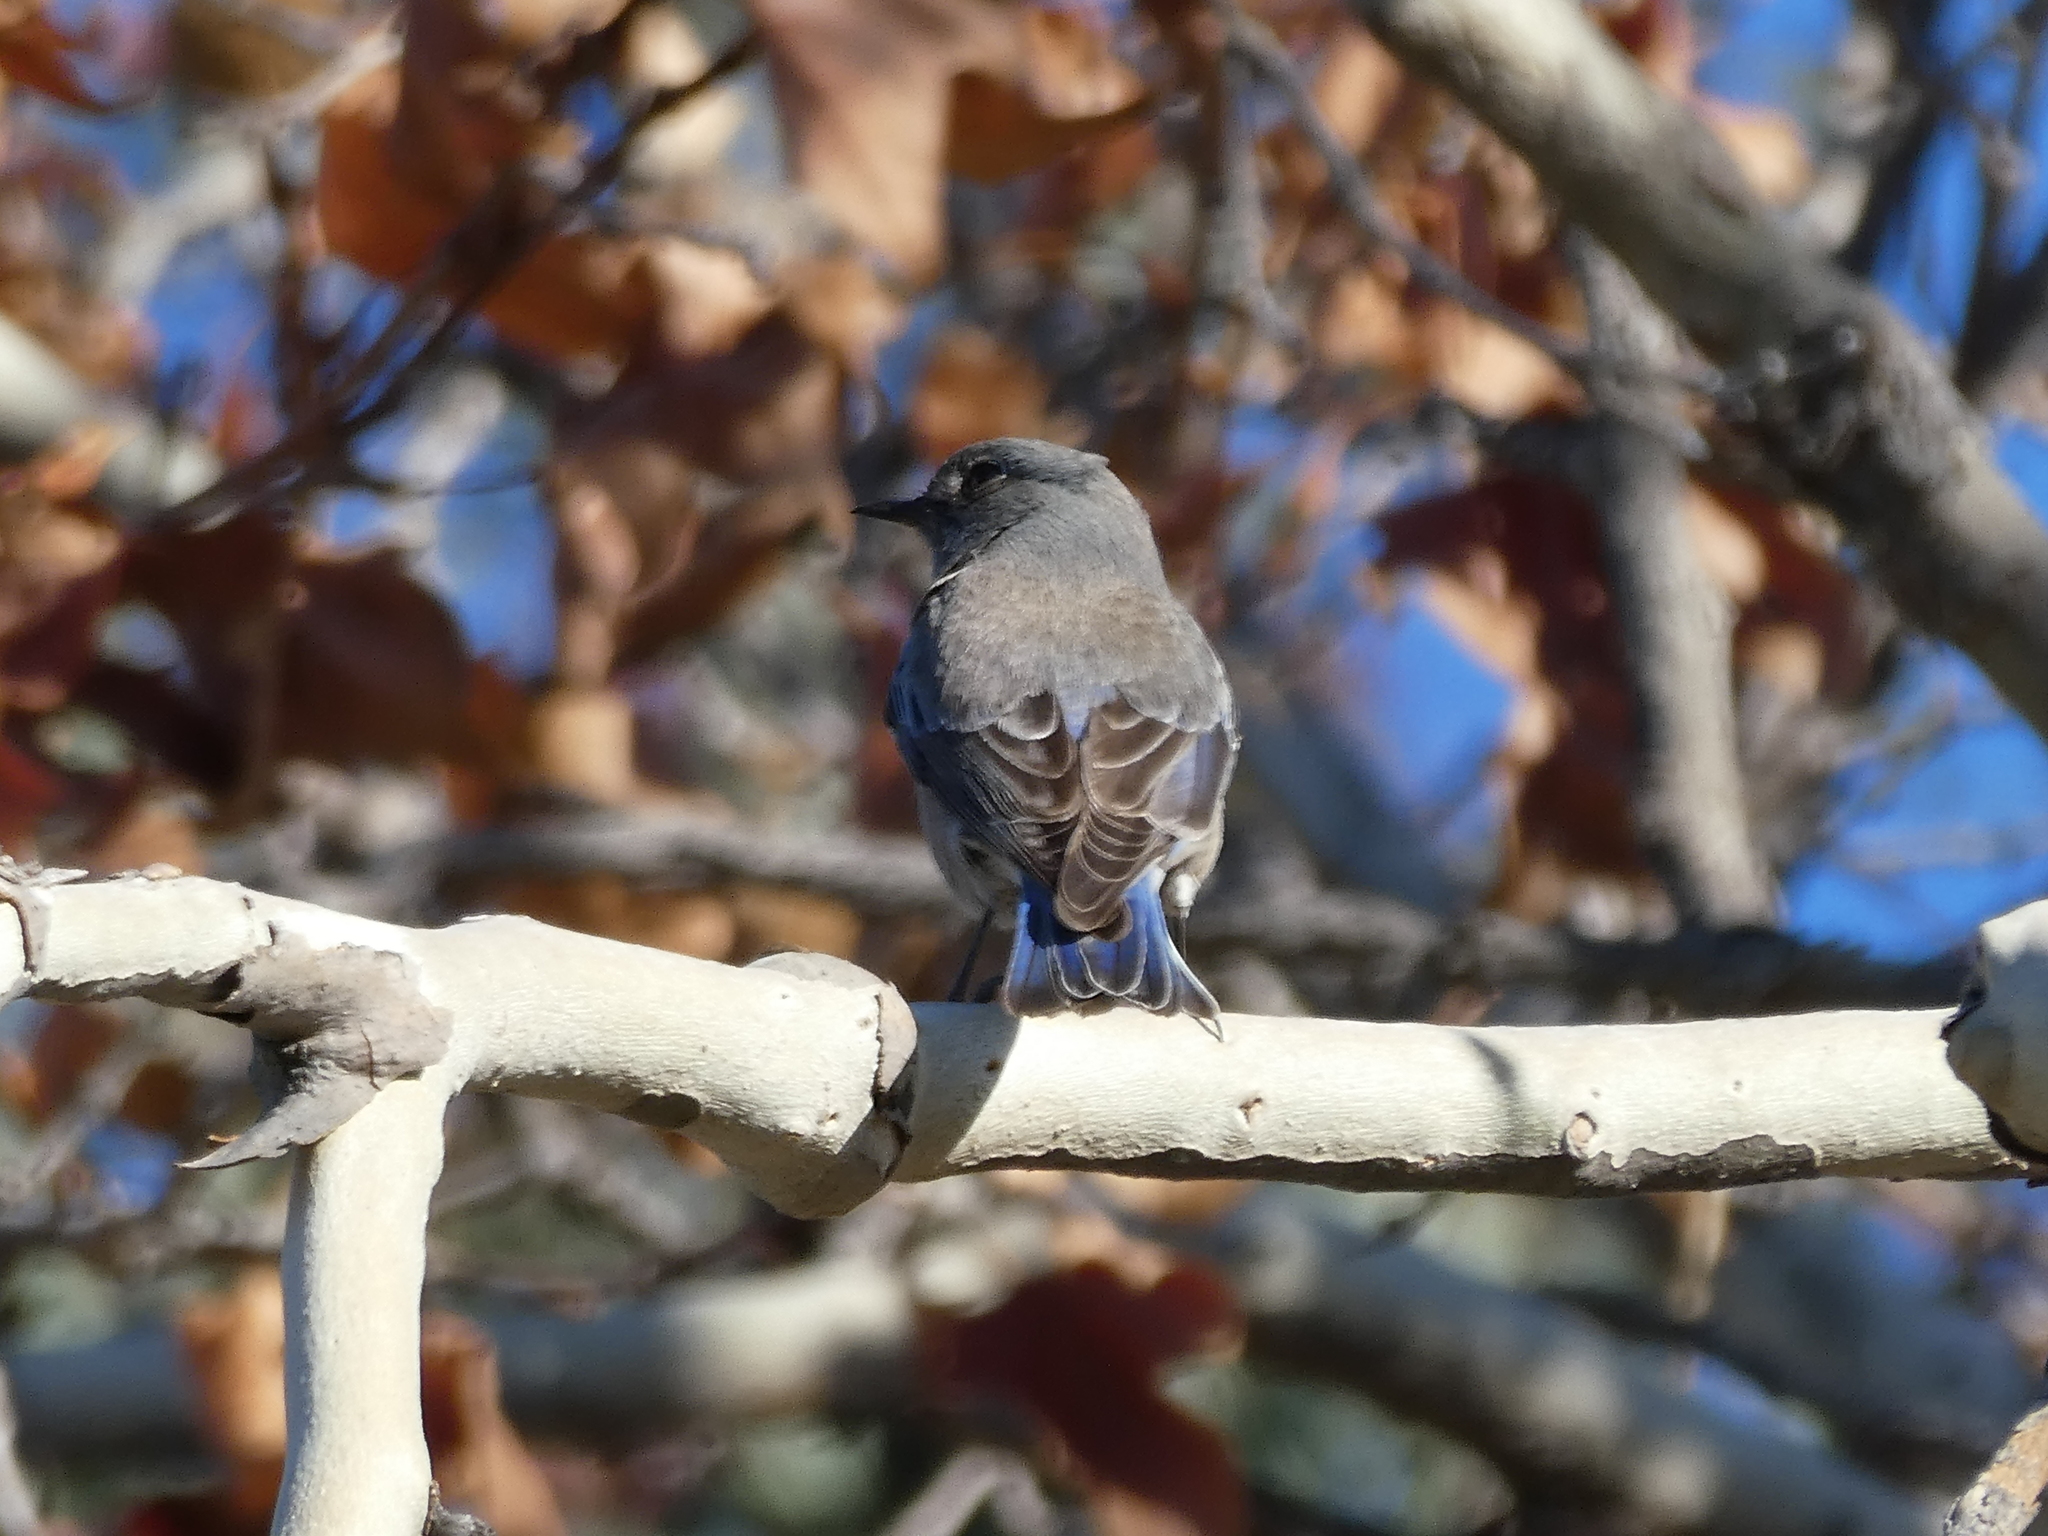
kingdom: Animalia
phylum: Chordata
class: Aves
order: Passeriformes
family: Turdidae
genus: Sialia
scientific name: Sialia mexicana
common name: Western bluebird
